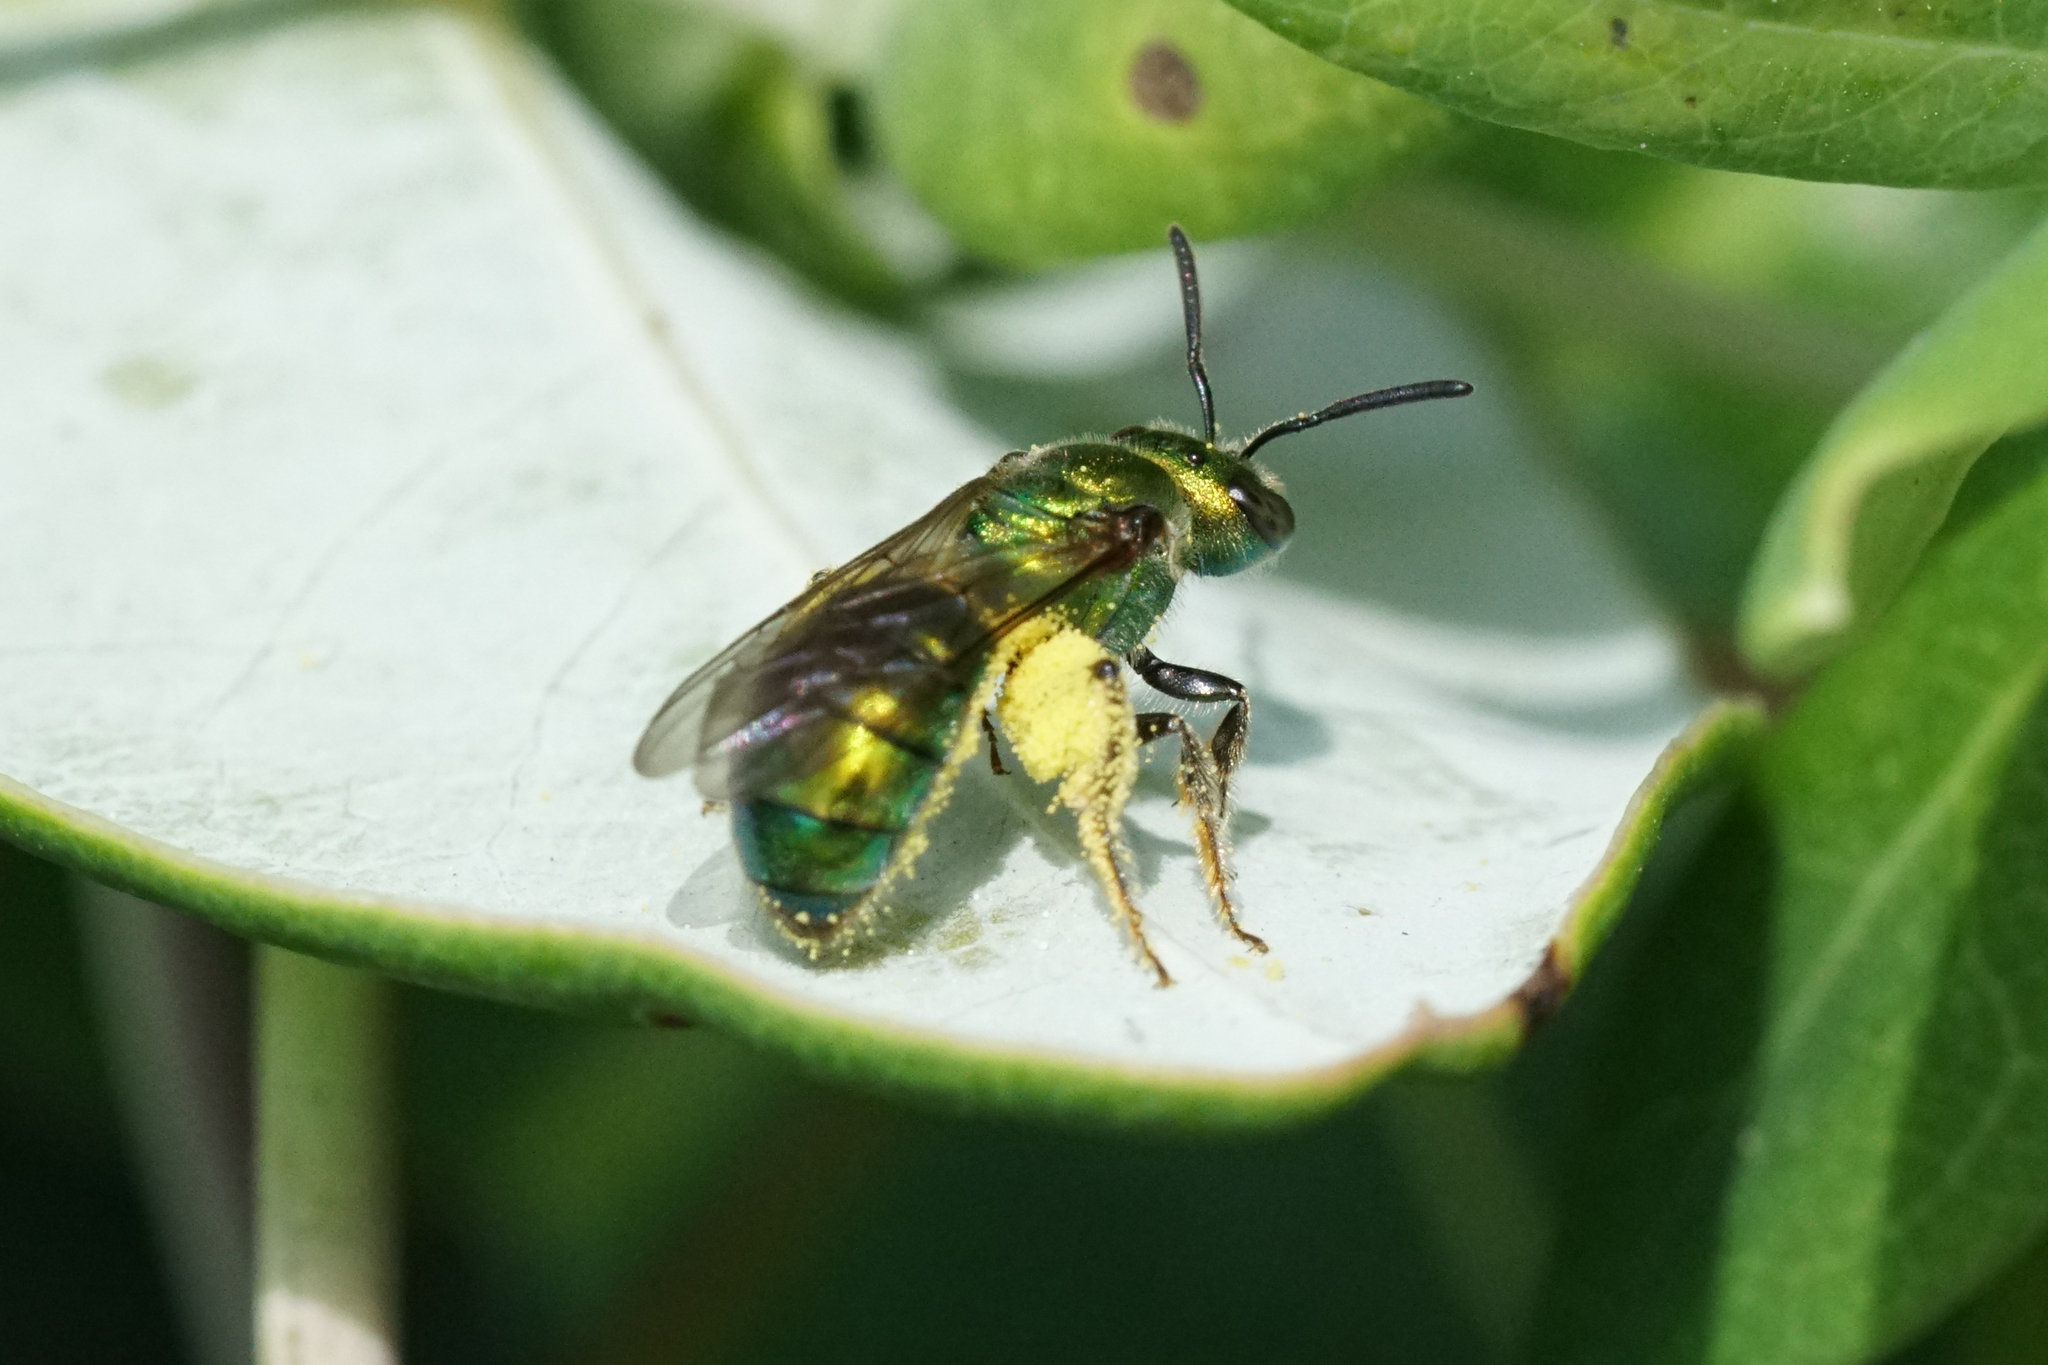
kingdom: Animalia
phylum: Arthropoda
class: Insecta
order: Hymenoptera
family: Halictidae
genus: Augochlora
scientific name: Augochlora pura
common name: Pure green sweat bee
